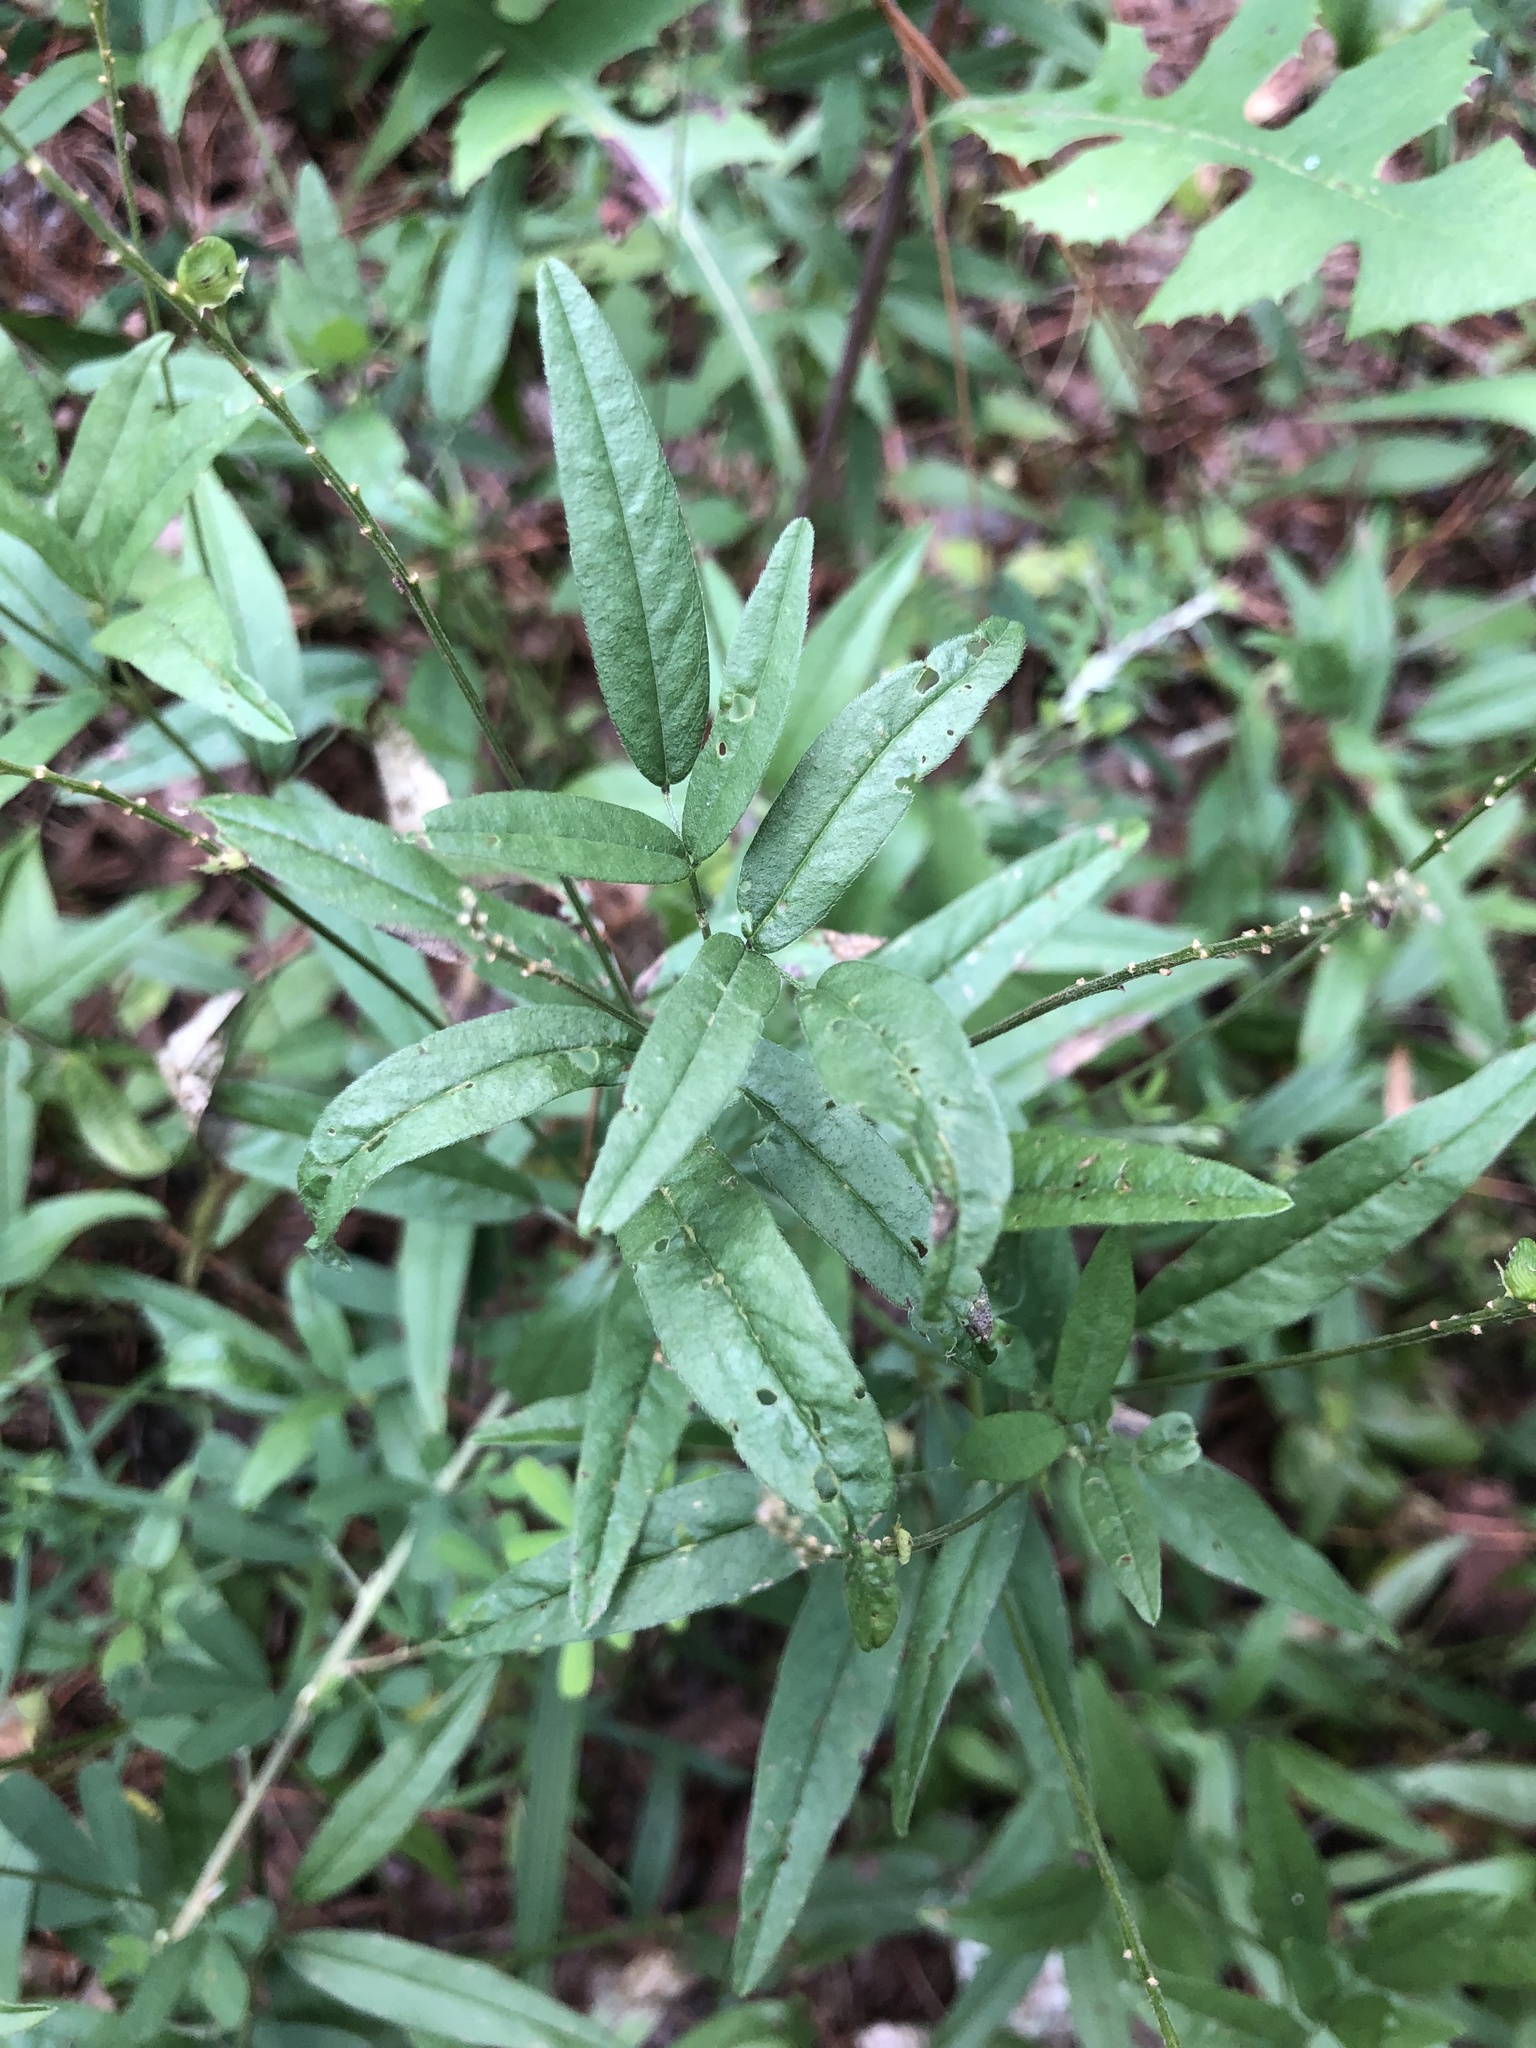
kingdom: Plantae
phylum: Tracheophyta
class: Magnoliopsida
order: Fabales
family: Fabaceae
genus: Orbexilum
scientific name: Orbexilum pedunculatum
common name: Sampson's snakeroot
